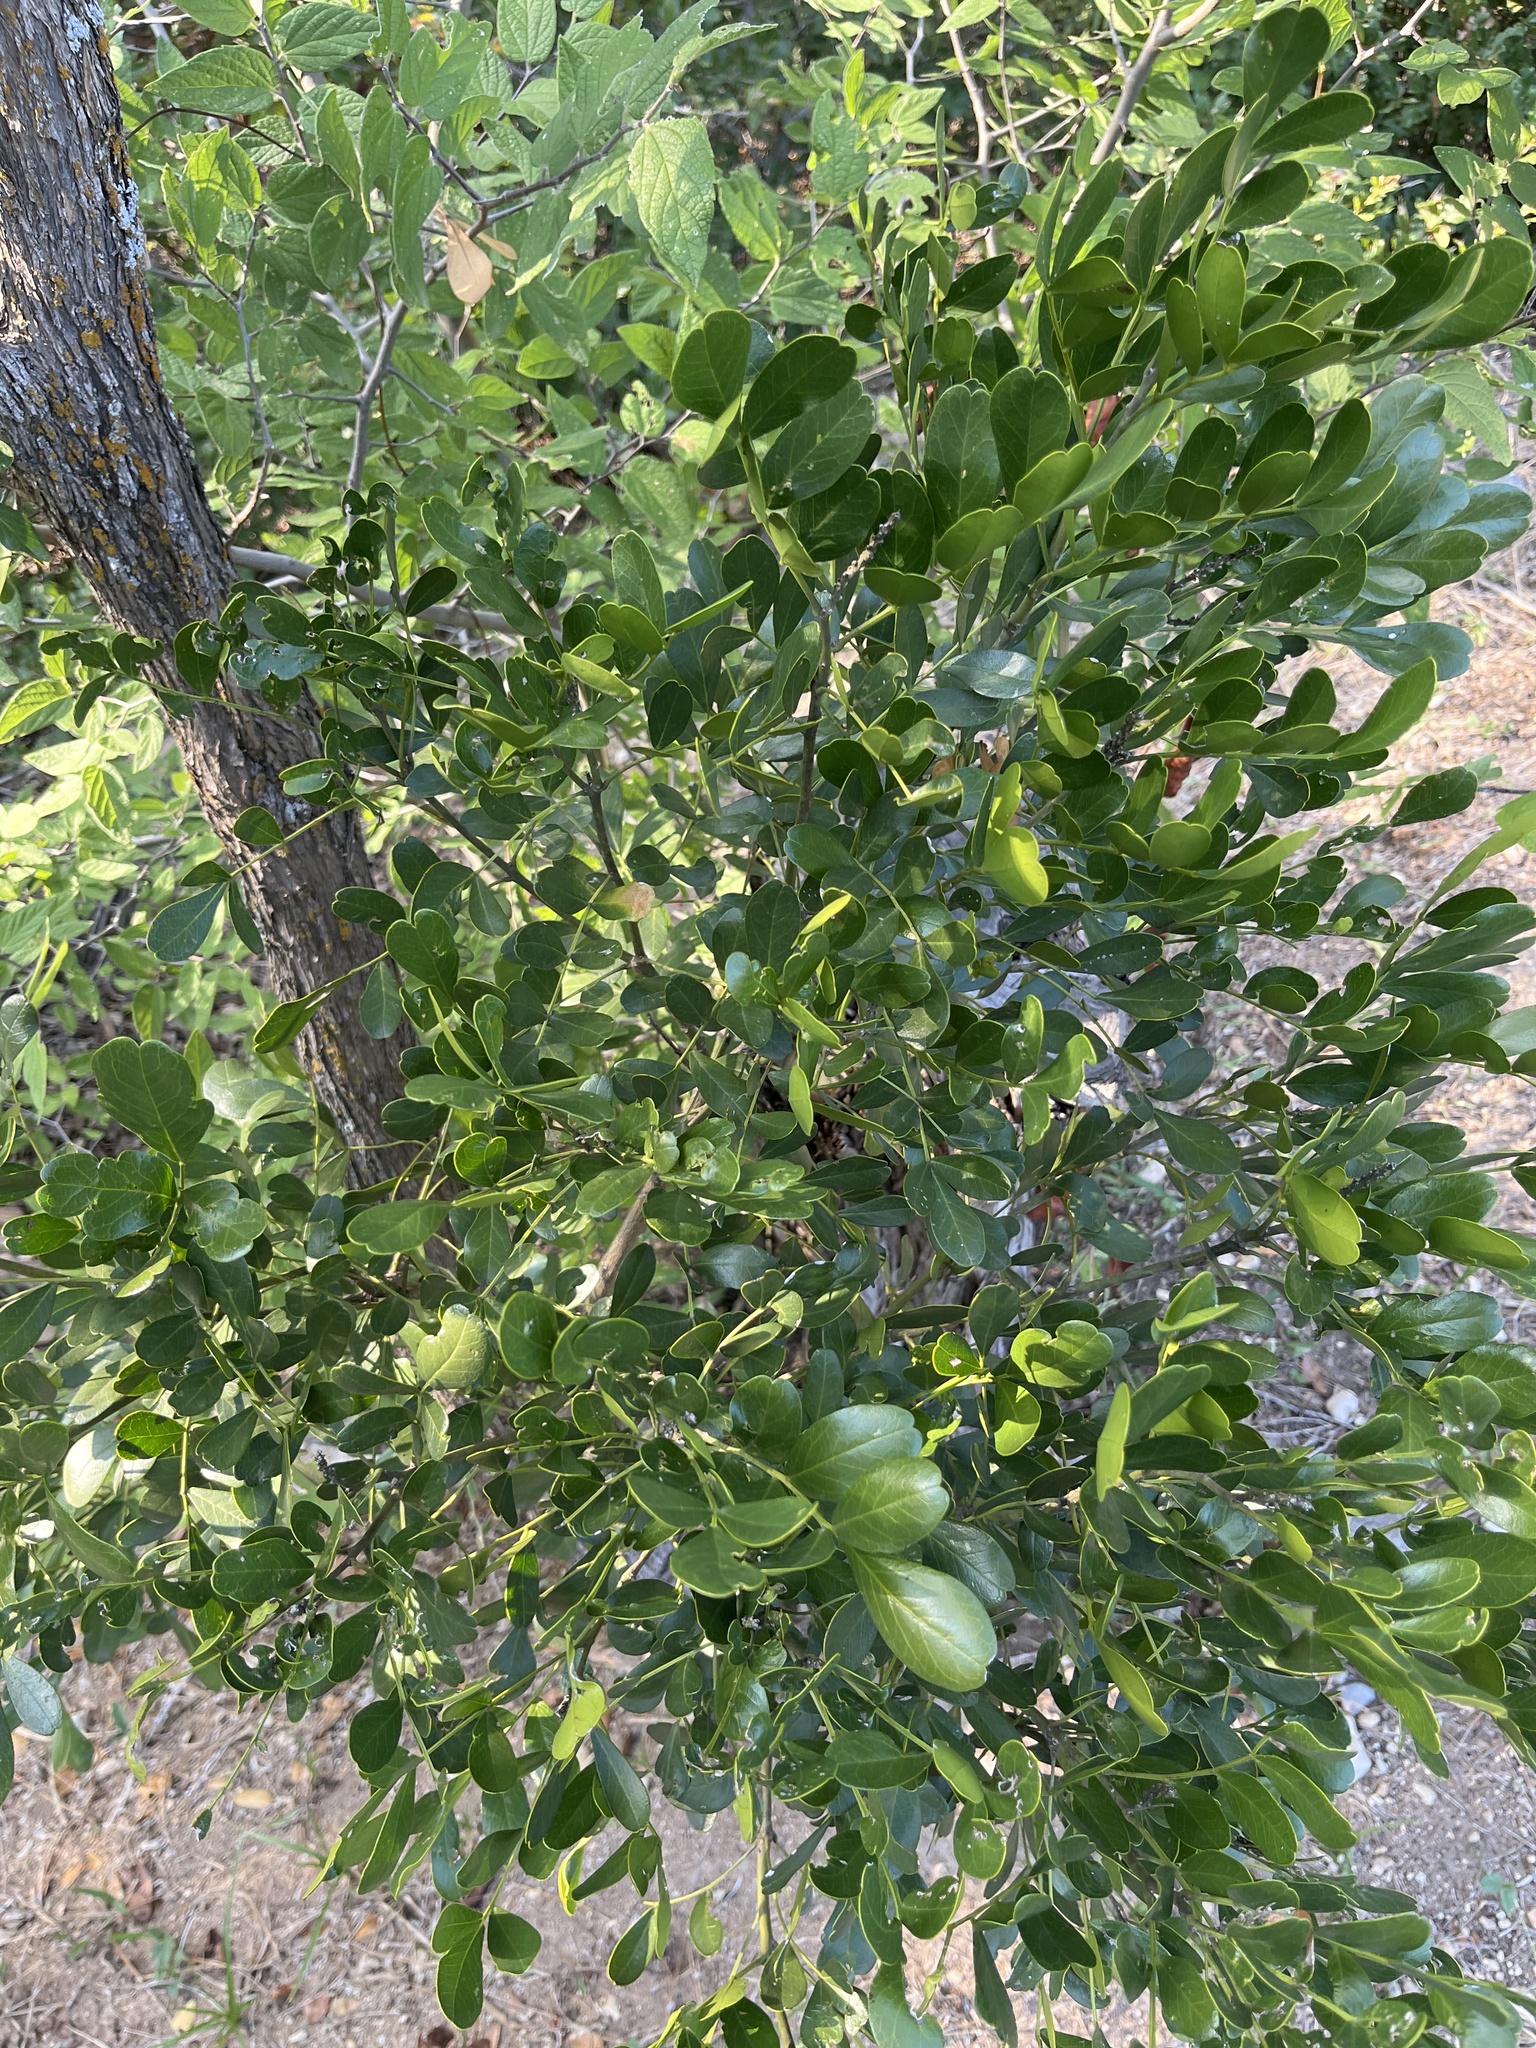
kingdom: Plantae
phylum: Tracheophyta
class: Magnoliopsida
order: Fabales
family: Fabaceae
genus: Dermatophyllum
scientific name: Dermatophyllum secundiflorum
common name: Texas-mountain-laurel
